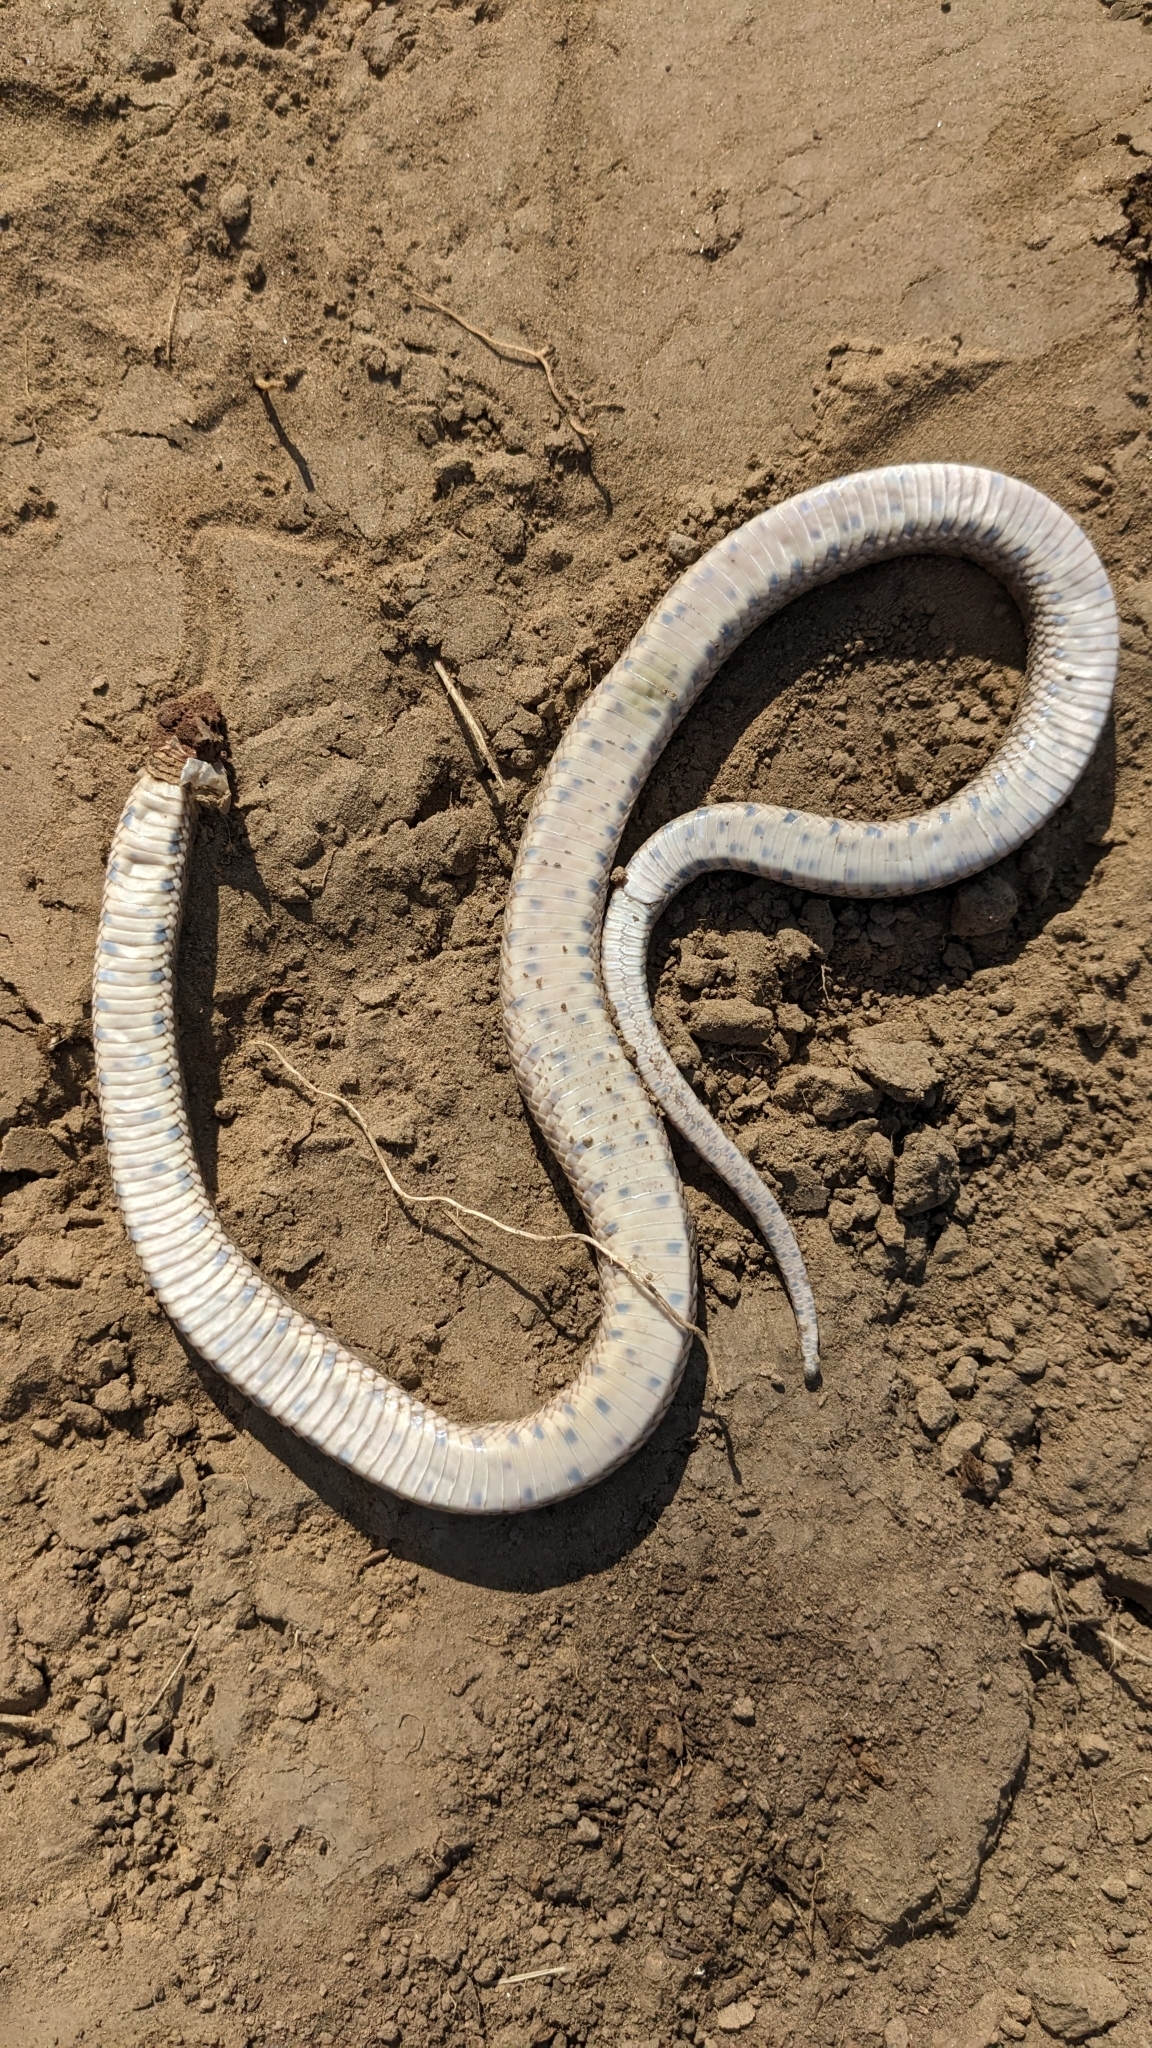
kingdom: Animalia
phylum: Chordata
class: Squamata
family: Colubridae
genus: Pituophis
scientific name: Pituophis catenifer
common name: Gopher snake
